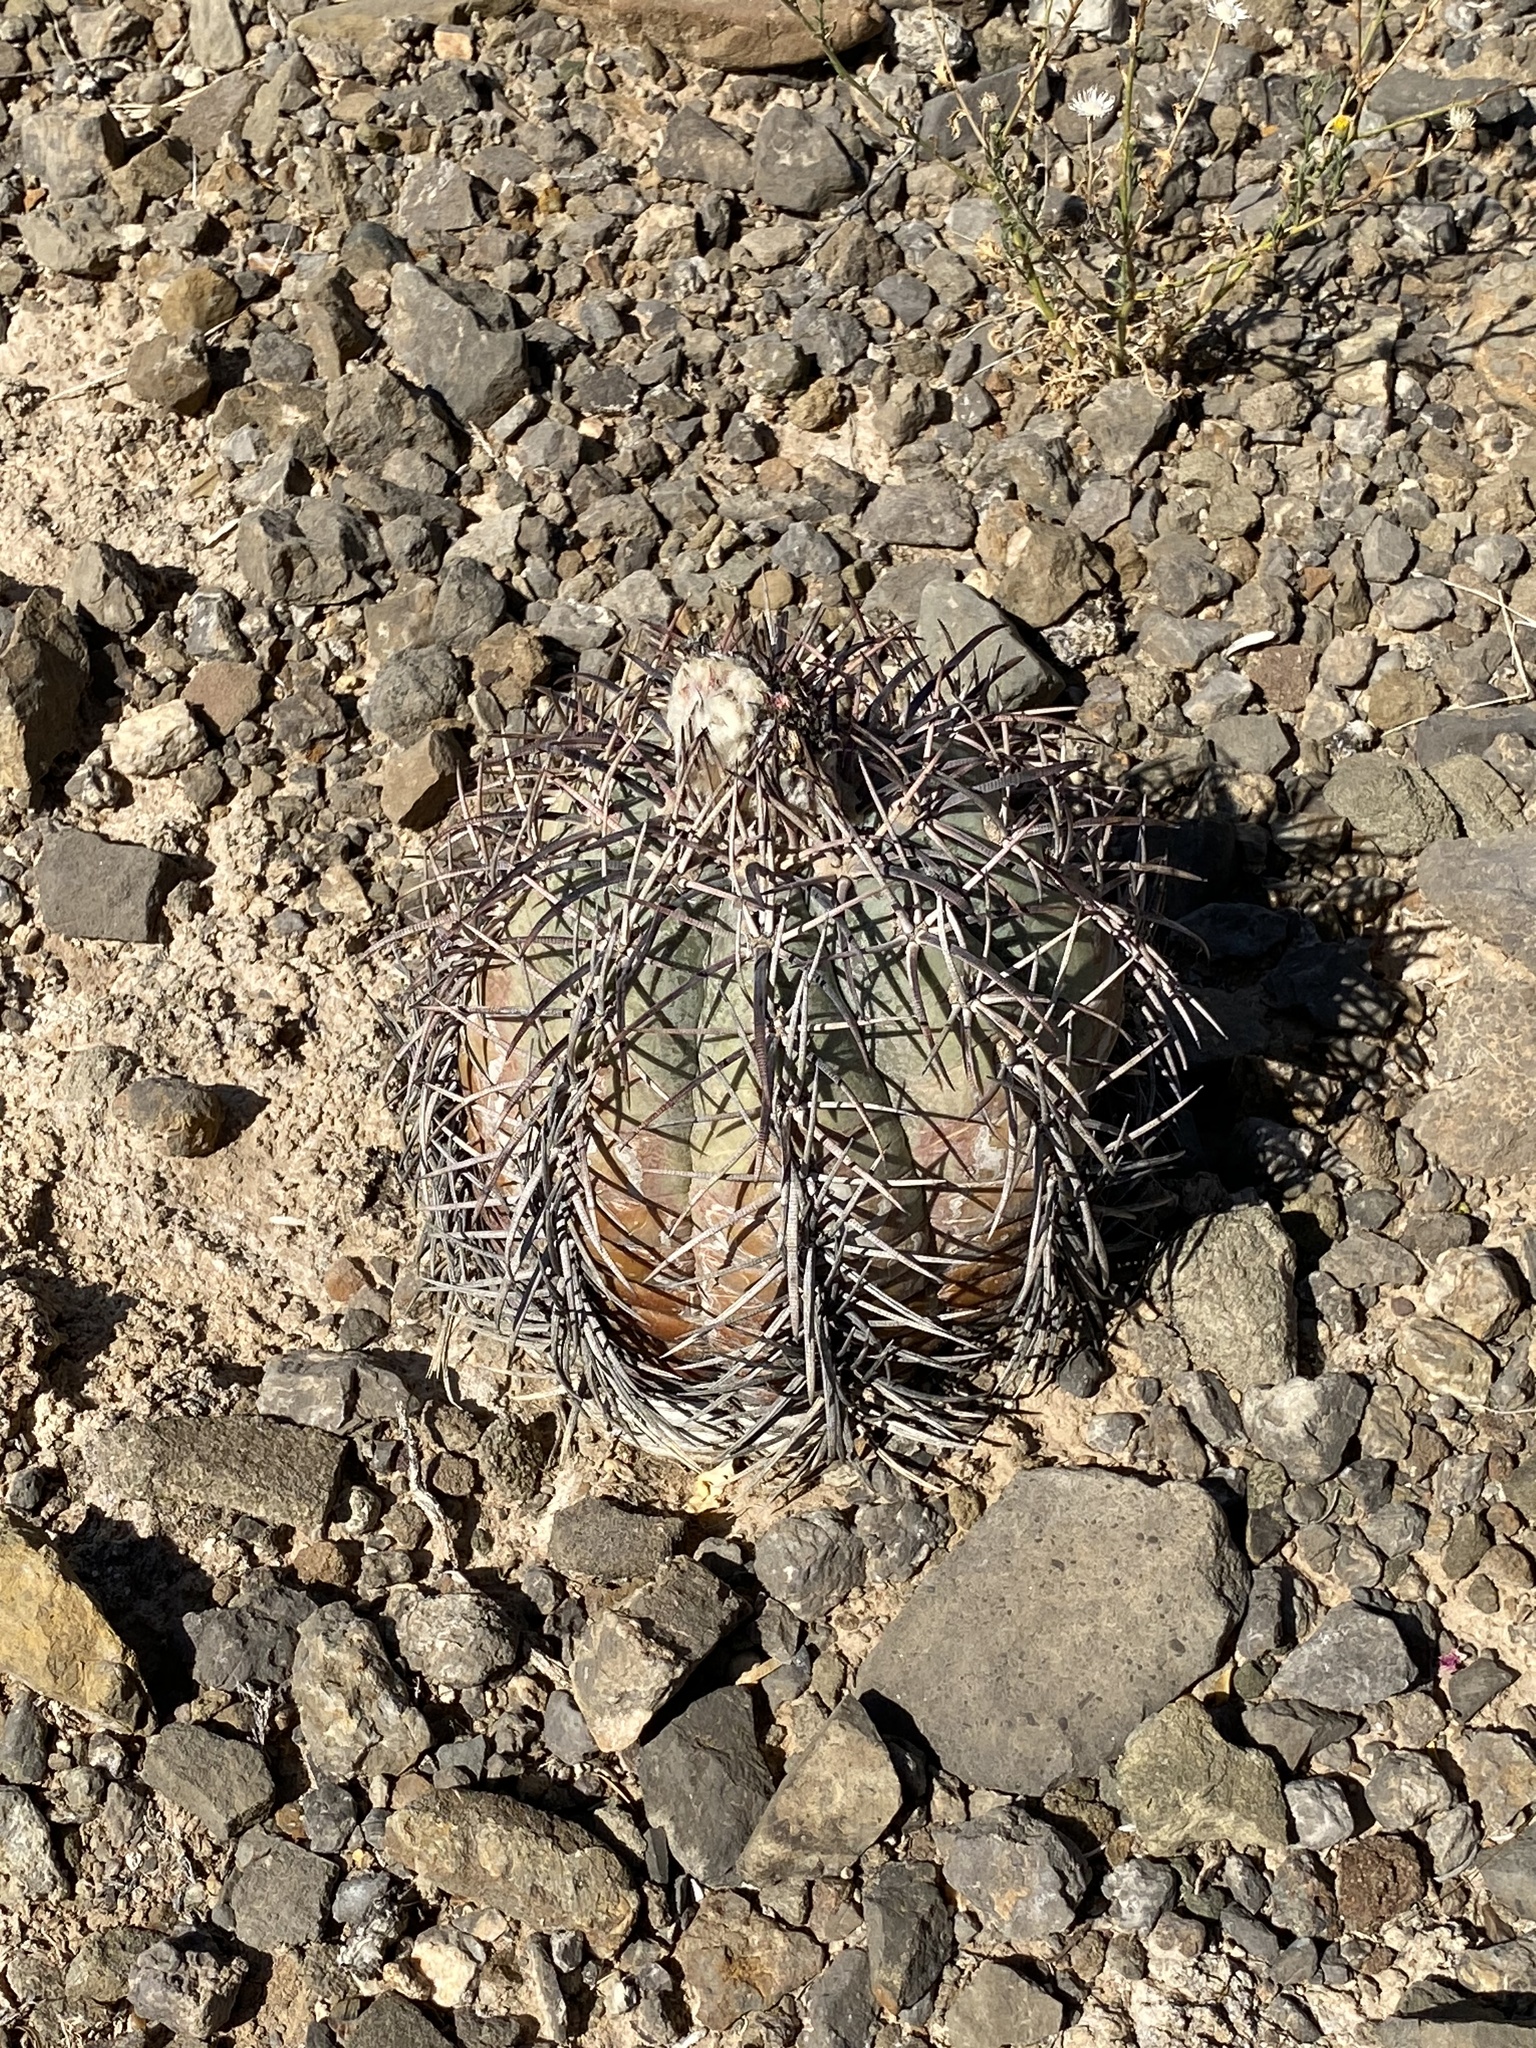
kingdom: Plantae
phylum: Tracheophyta
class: Magnoliopsida
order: Caryophyllales
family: Cactaceae
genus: Echinocactus
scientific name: Echinocactus horizonthalonius
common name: Devilshead
